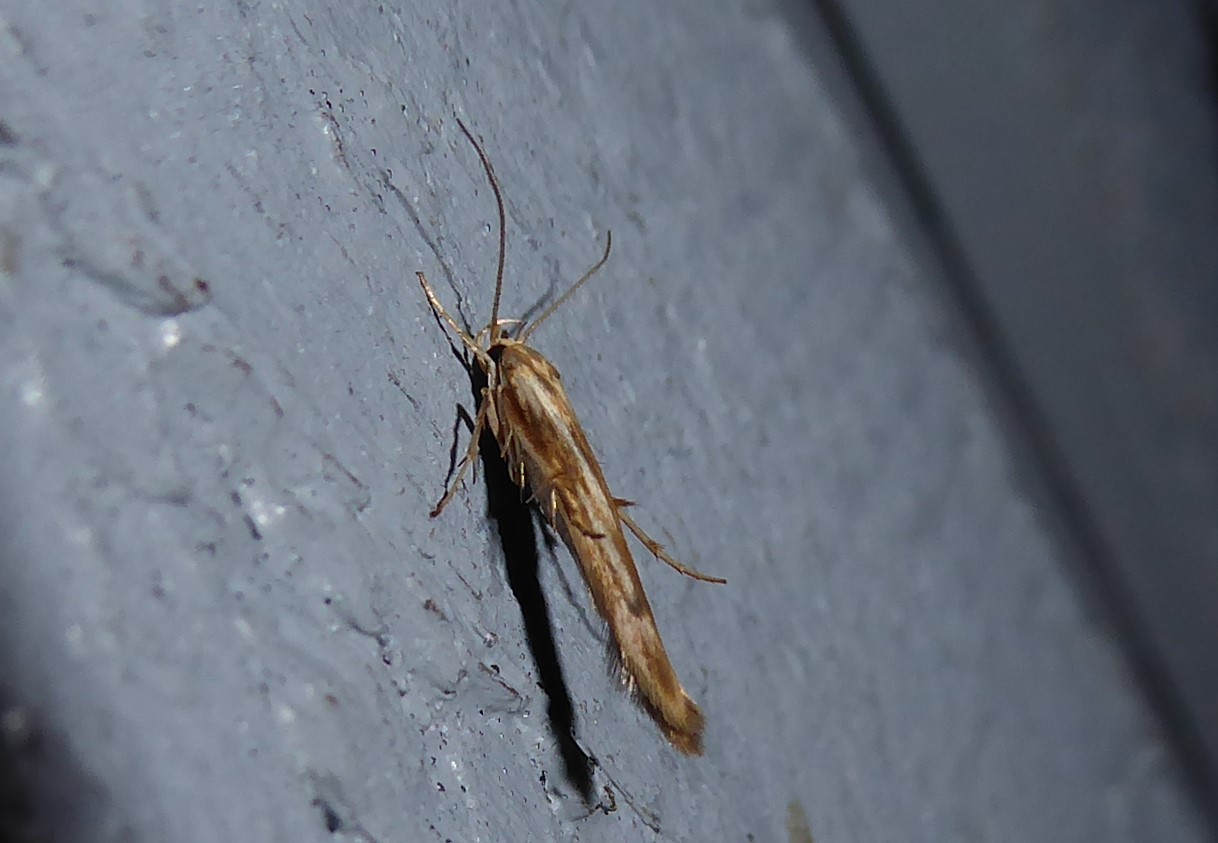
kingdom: Animalia
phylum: Arthropoda
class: Insecta
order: Lepidoptera
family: Stathmopodidae
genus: Stathmopoda
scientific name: Stathmopoda aposema
